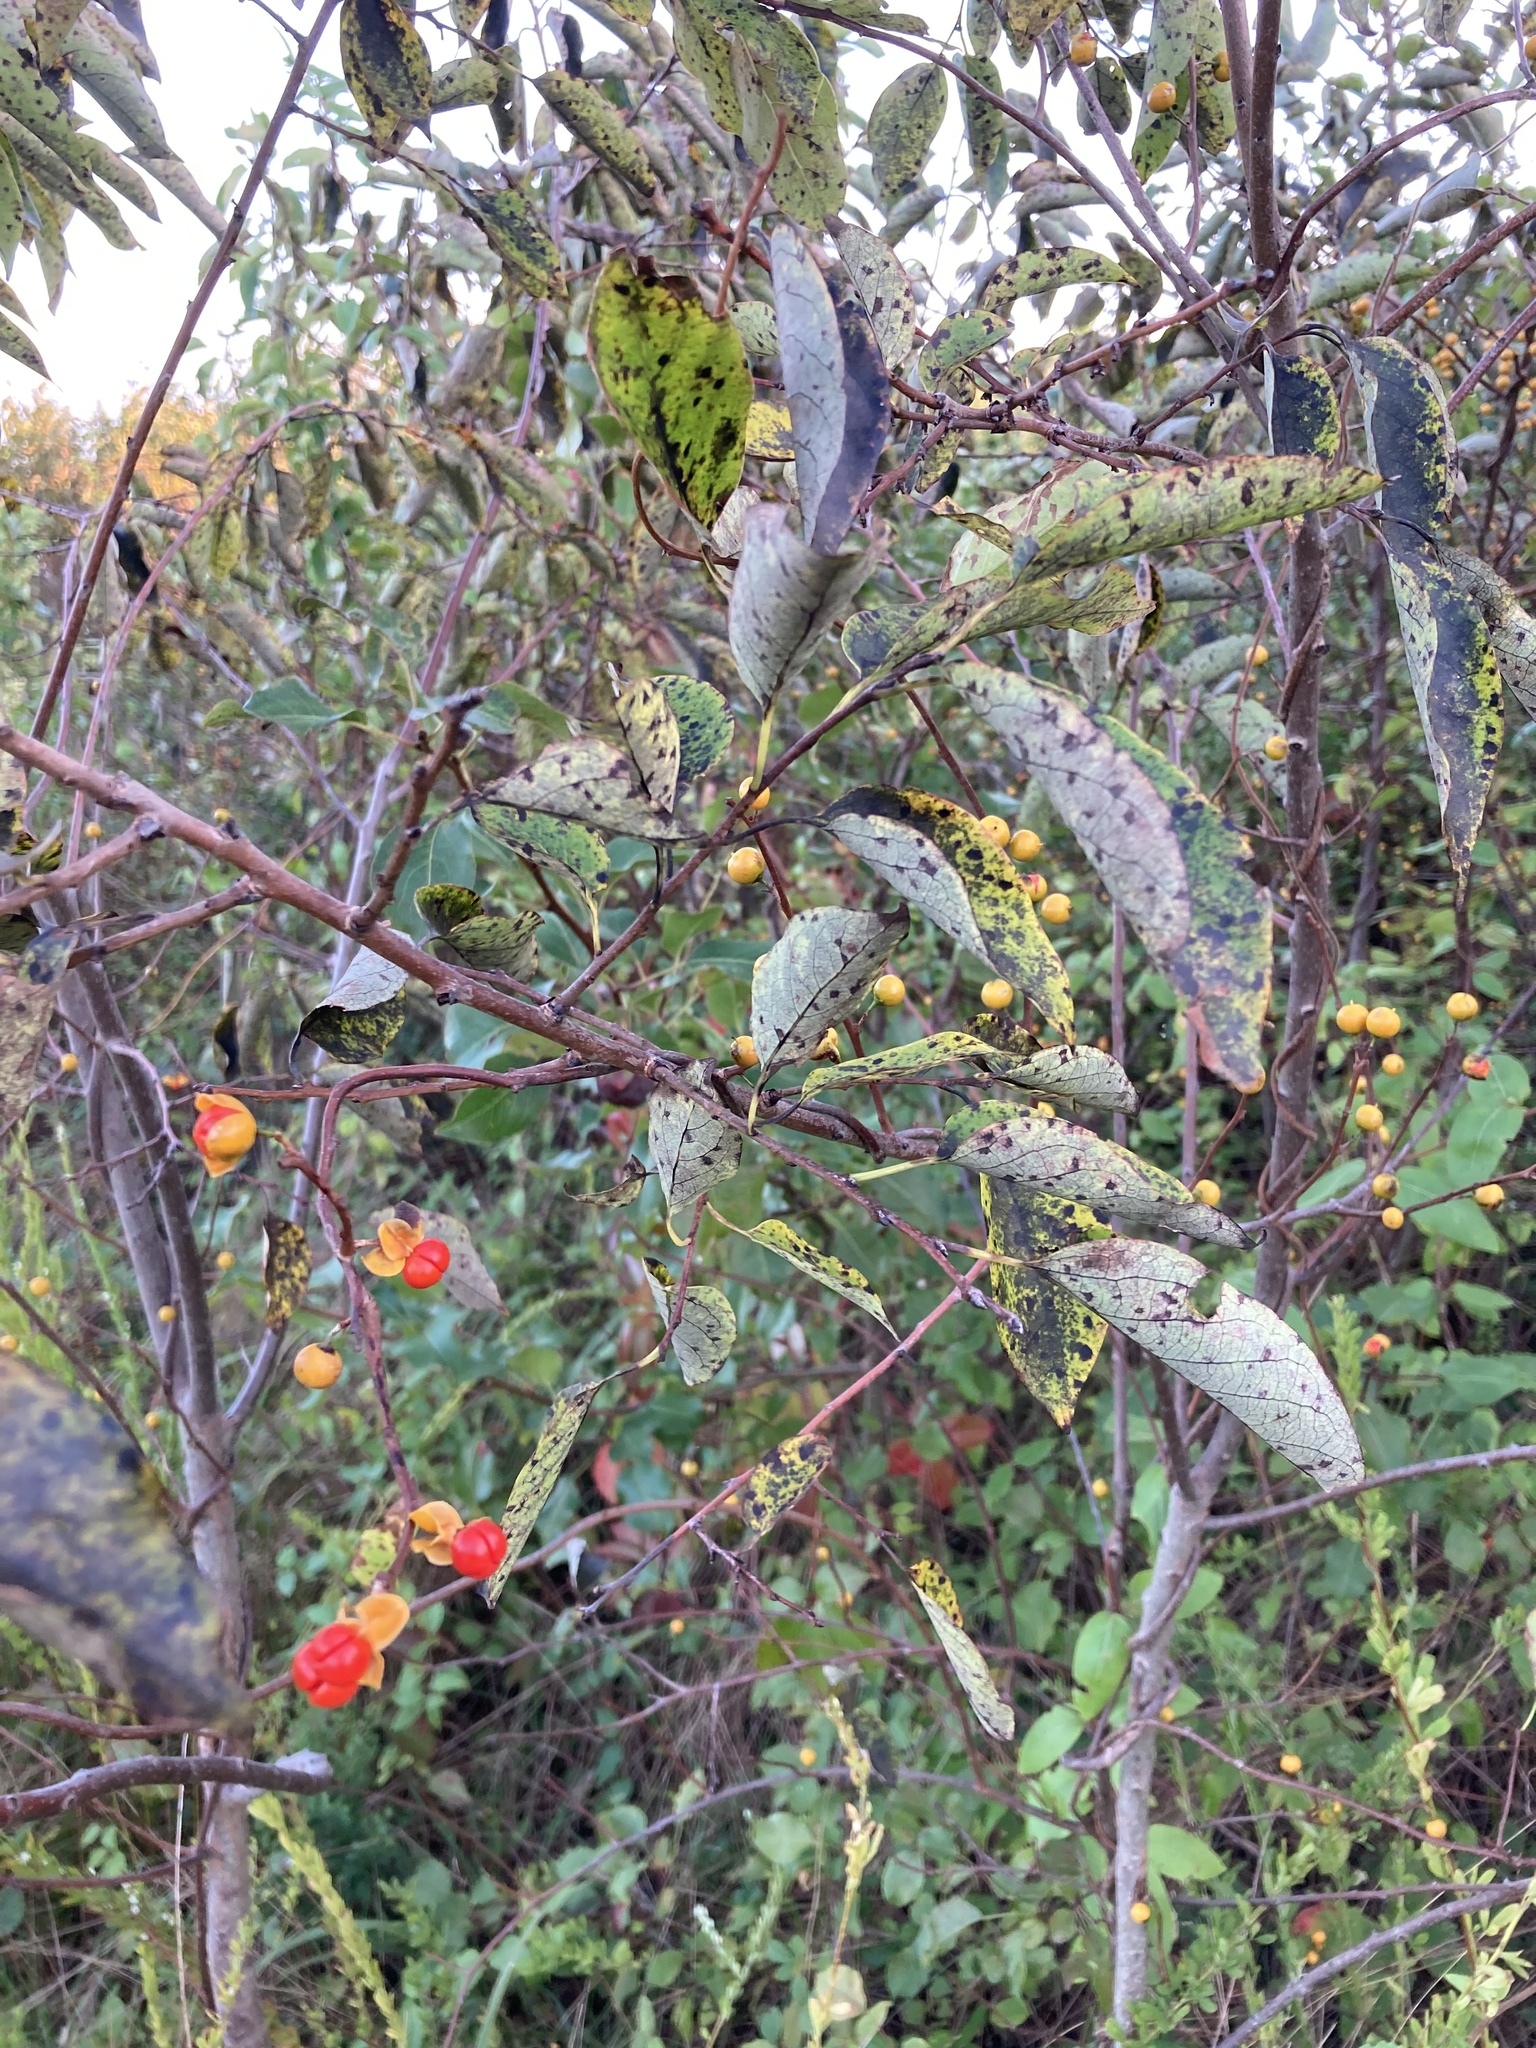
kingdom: Plantae
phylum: Tracheophyta
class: Magnoliopsida
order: Celastrales
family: Celastraceae
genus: Celastrus
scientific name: Celastrus orbiculatus
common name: Oriental bittersweet
